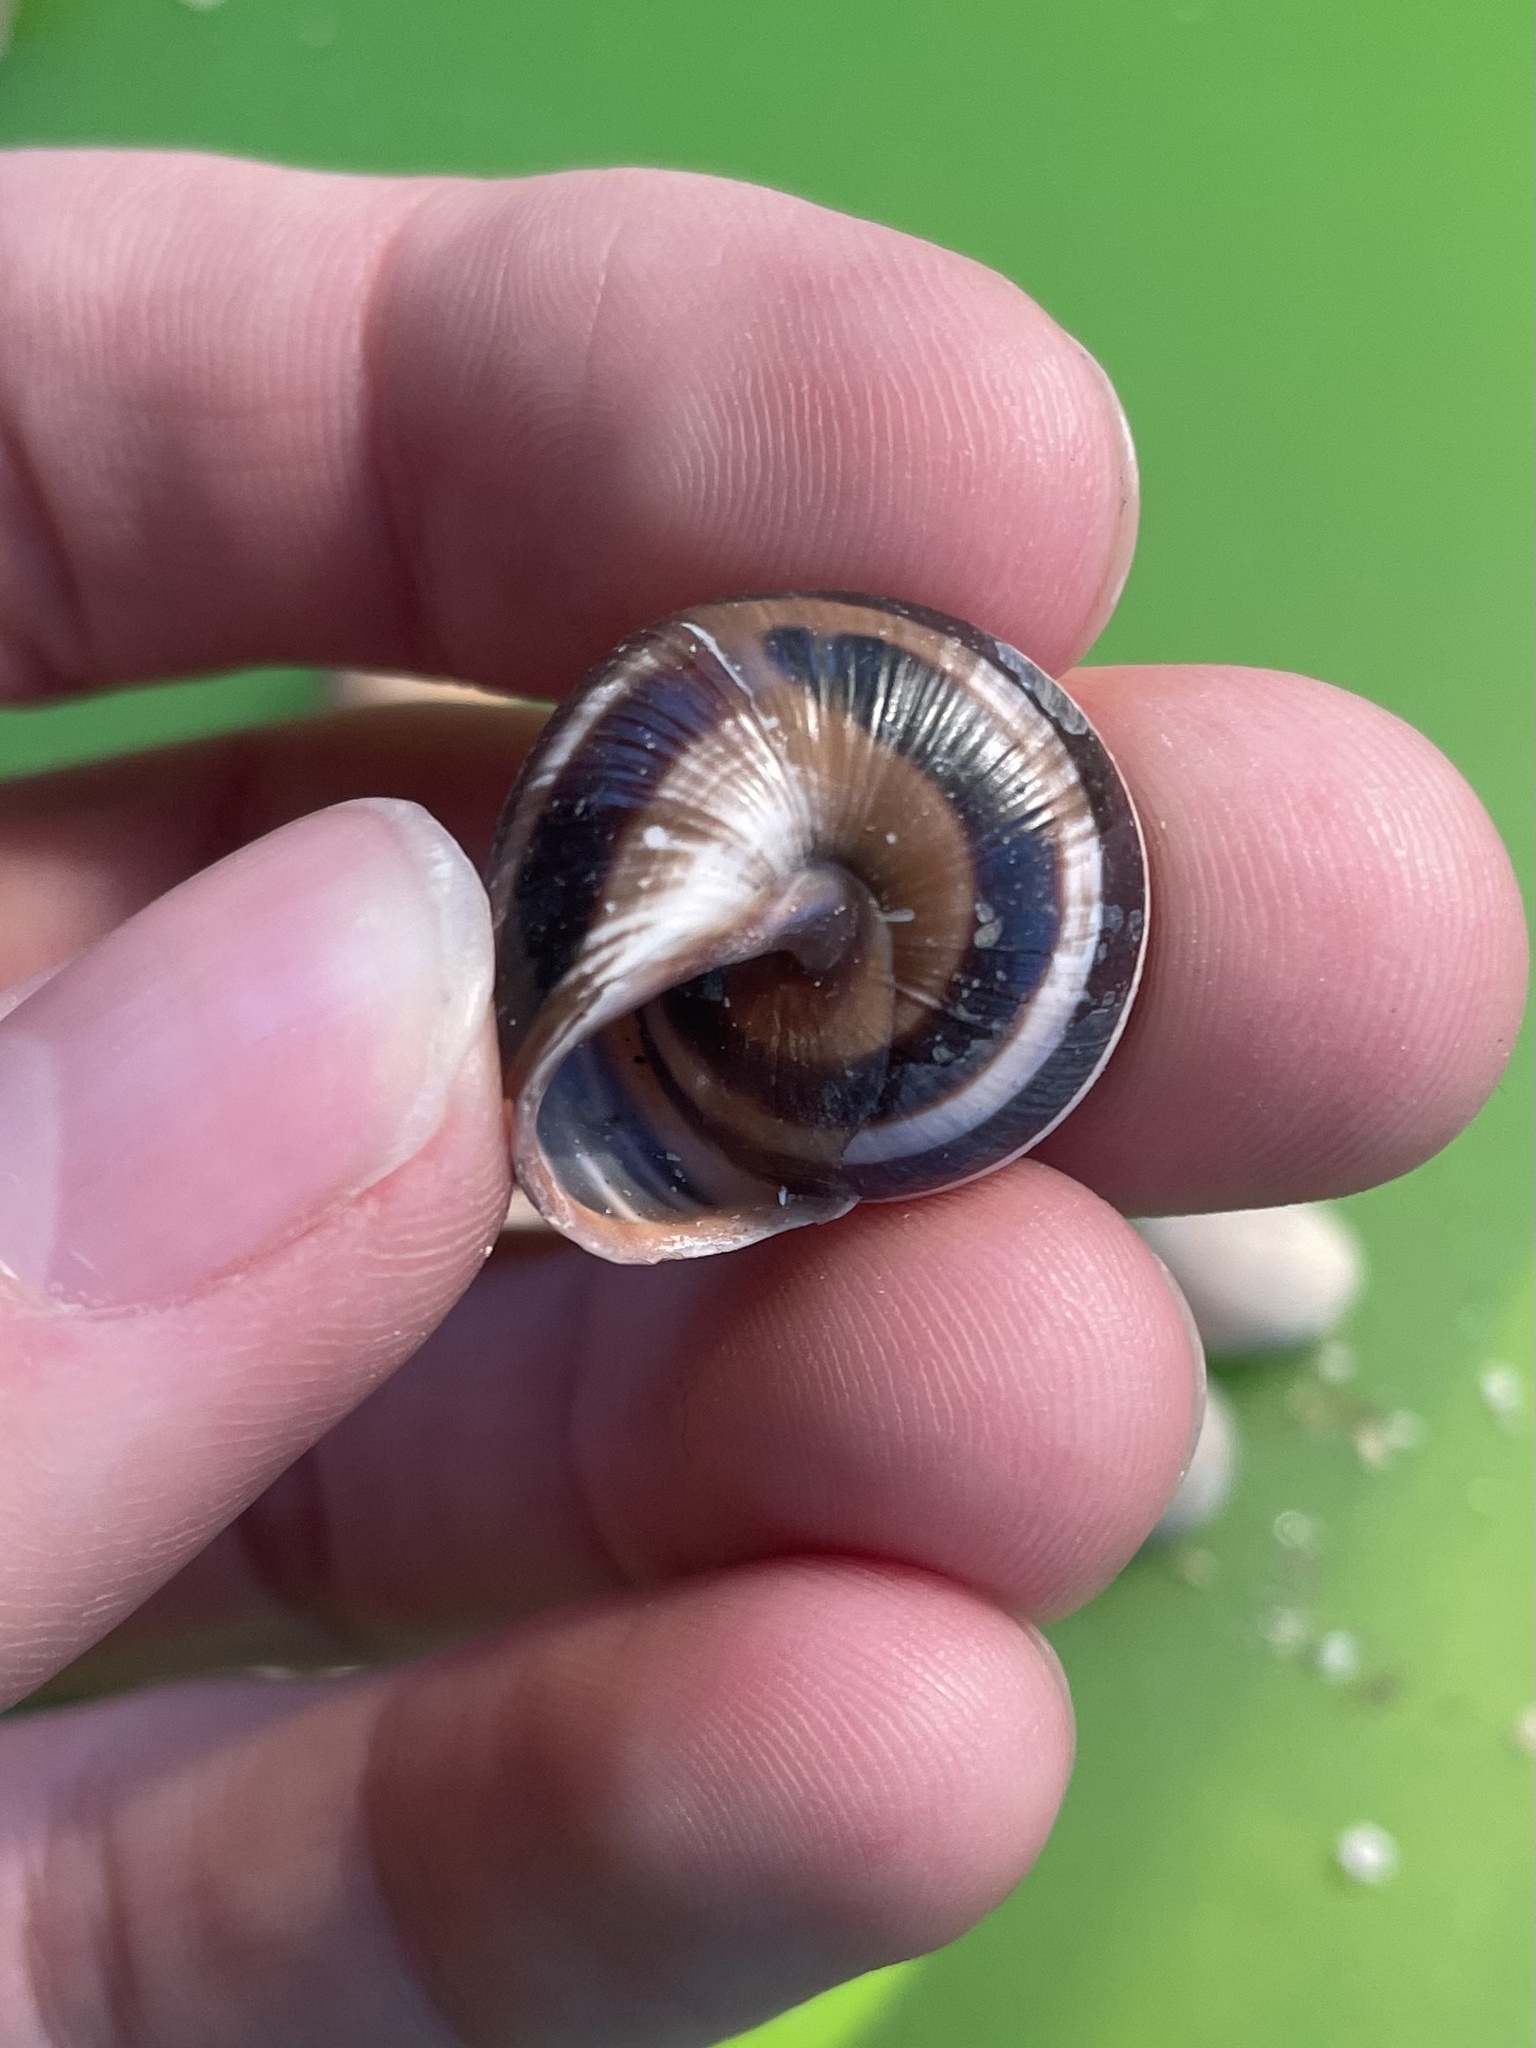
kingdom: Animalia
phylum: Mollusca
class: Gastropoda
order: Stylommatophora
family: Helicidae
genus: Cepaea
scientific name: Cepaea nemoralis
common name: Grovesnail
